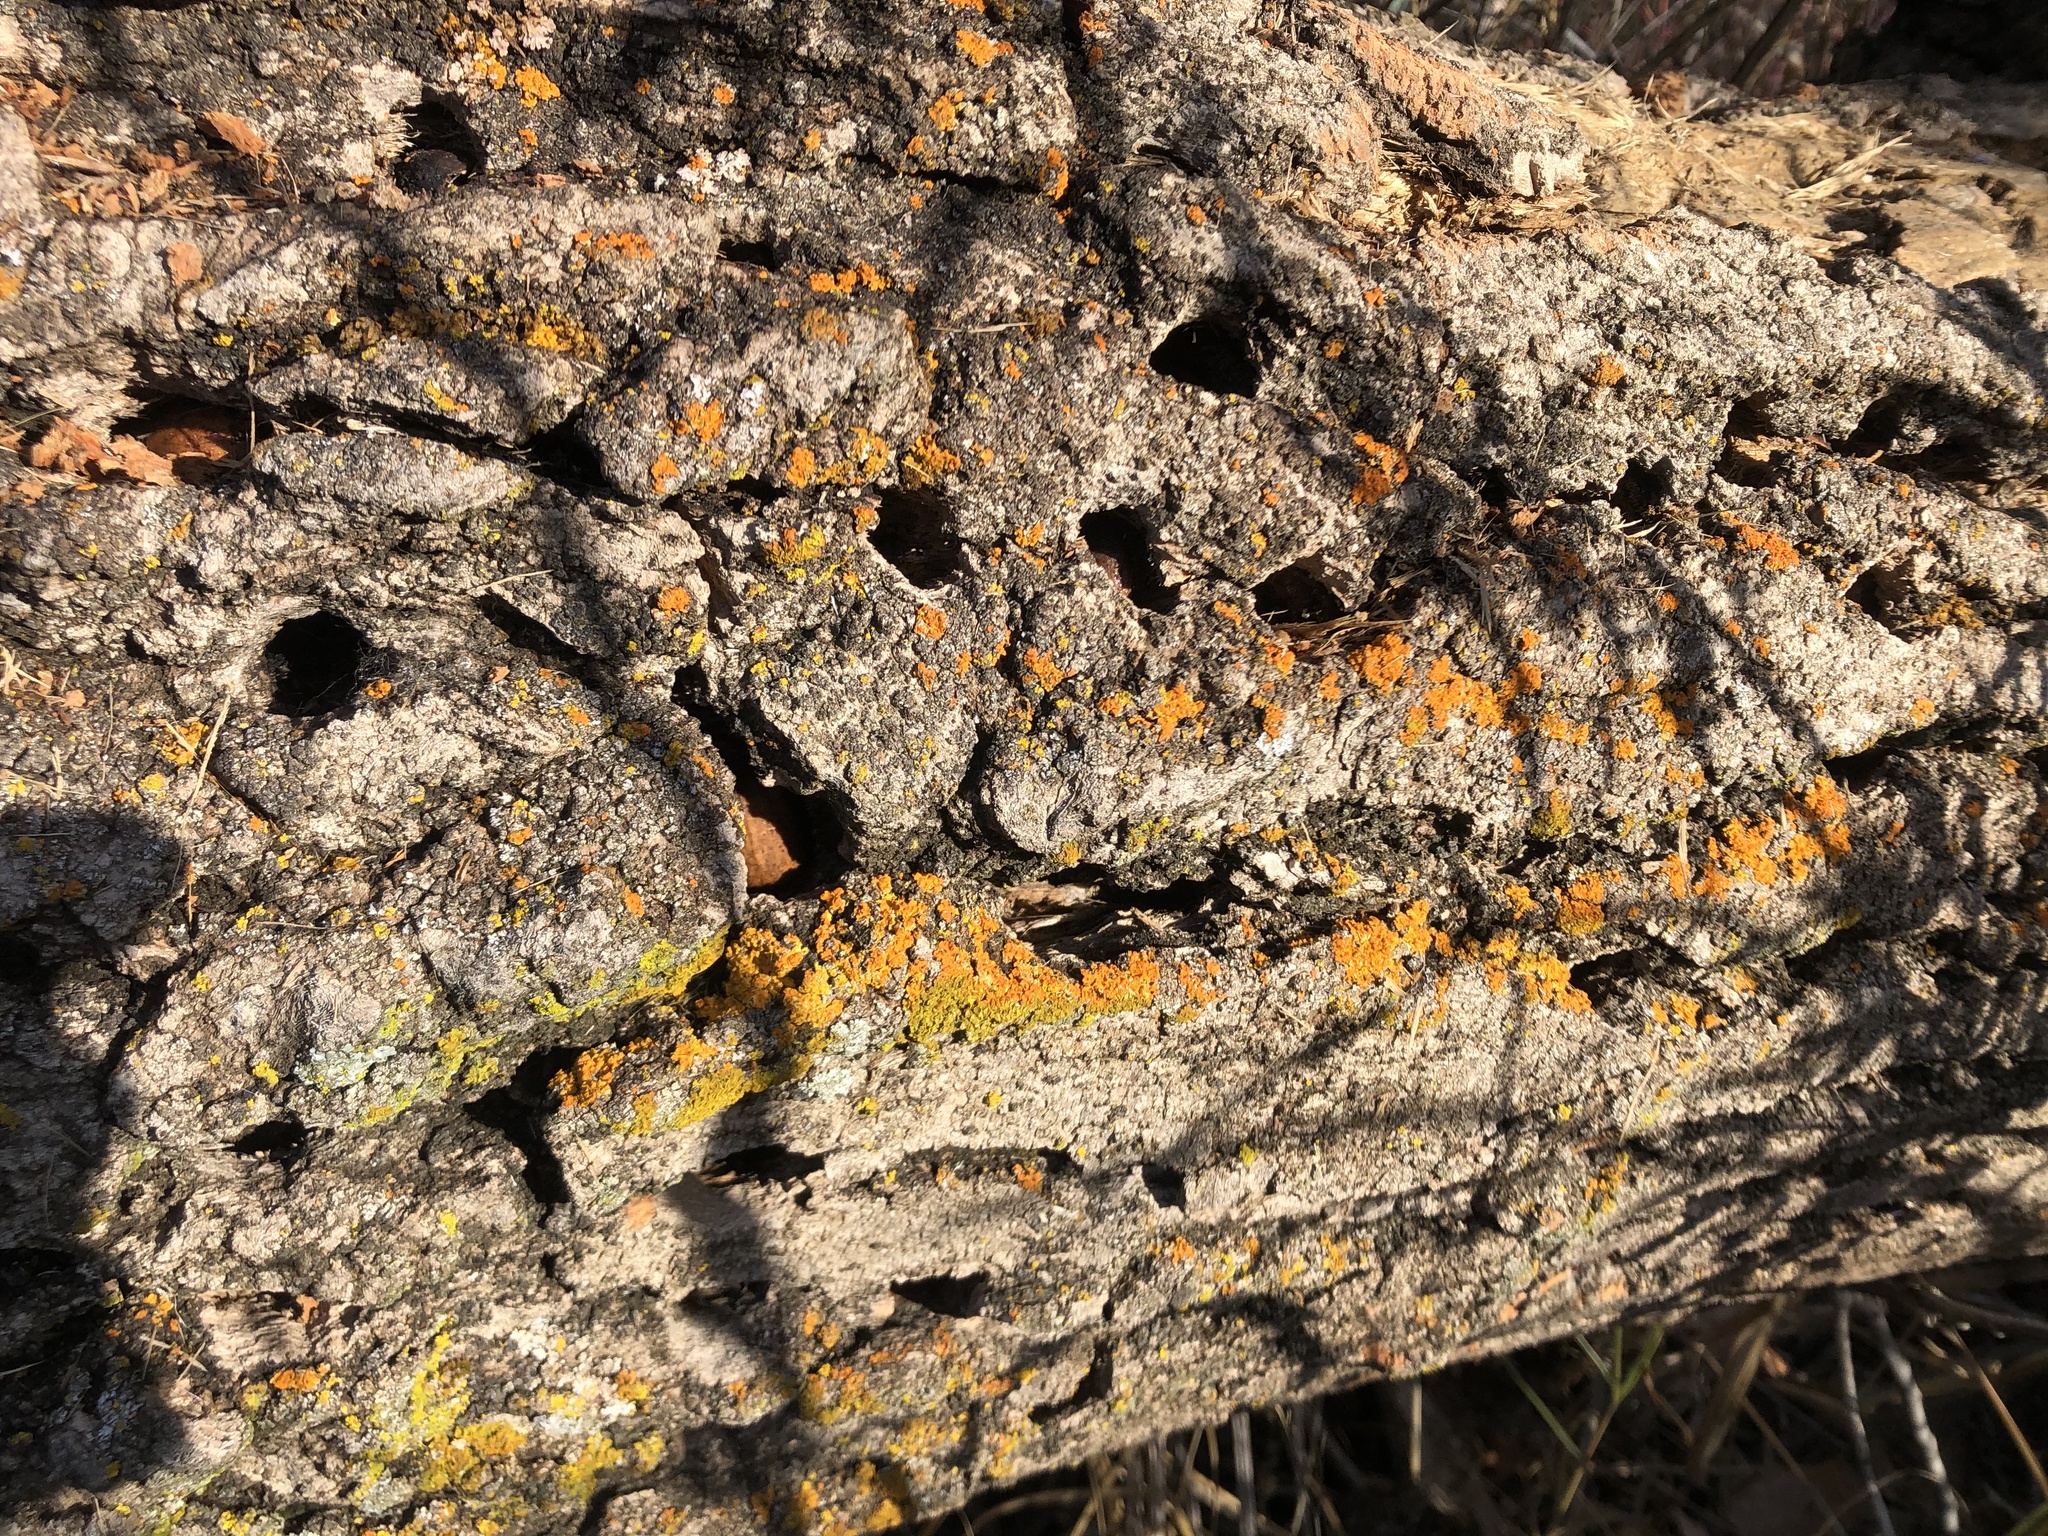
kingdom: Animalia
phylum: Chordata
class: Aves
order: Piciformes
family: Picidae
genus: Melanerpes
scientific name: Melanerpes formicivorus
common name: Acorn woodpecker
